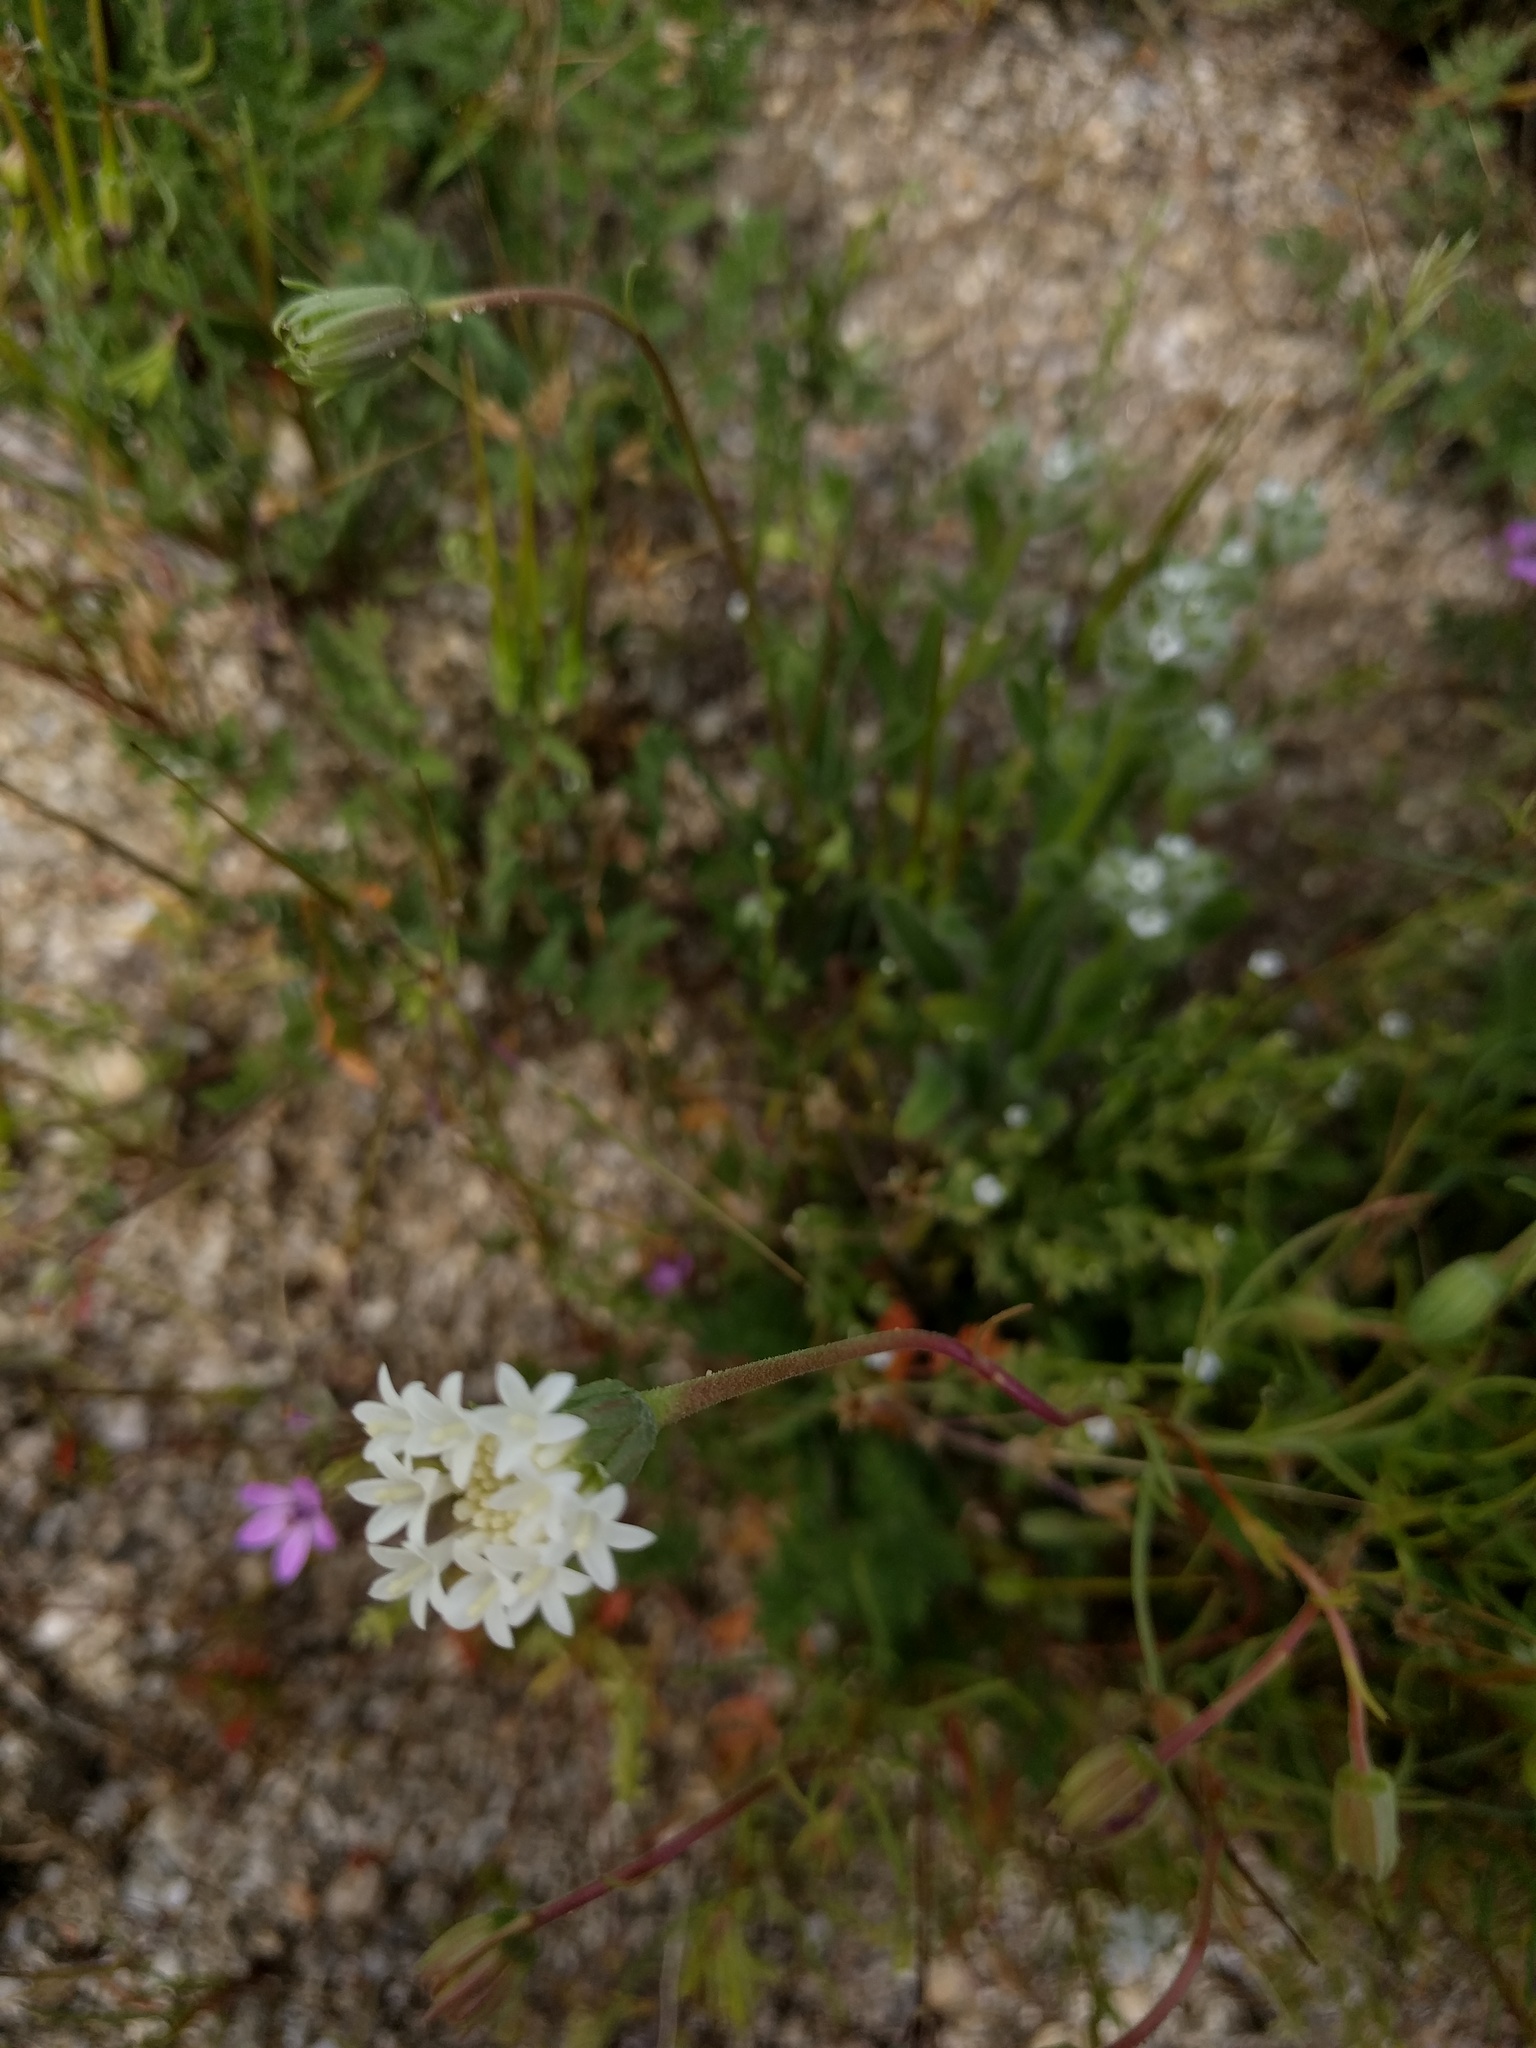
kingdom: Plantae
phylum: Tracheophyta
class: Magnoliopsida
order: Asterales
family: Asteraceae
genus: Chaenactis
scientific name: Chaenactis fremontii
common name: Fremont pincushion
